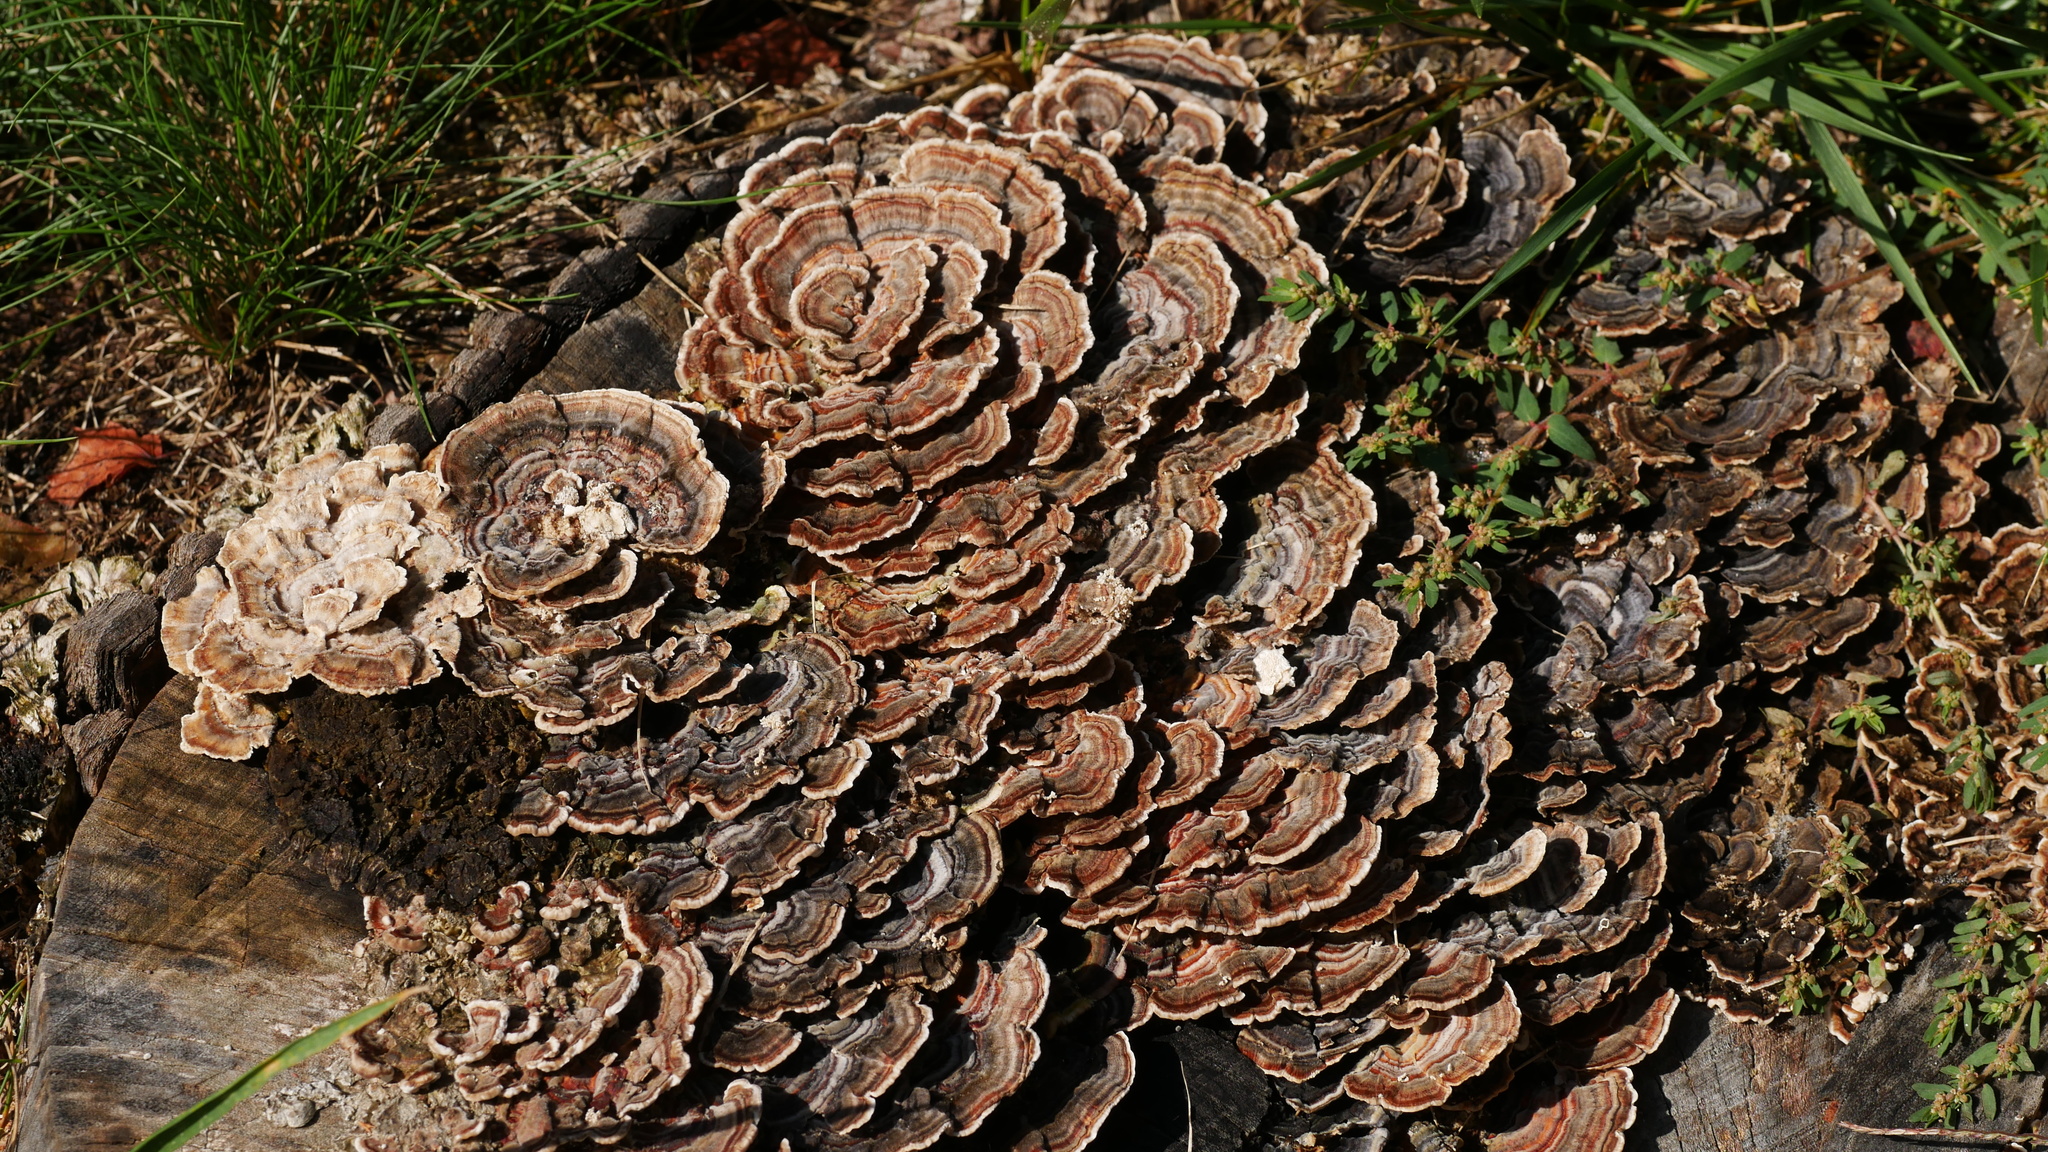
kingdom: Fungi
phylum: Basidiomycota
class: Agaricomycetes
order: Polyporales
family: Polyporaceae
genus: Trametes
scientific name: Trametes versicolor
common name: Turkeytail
